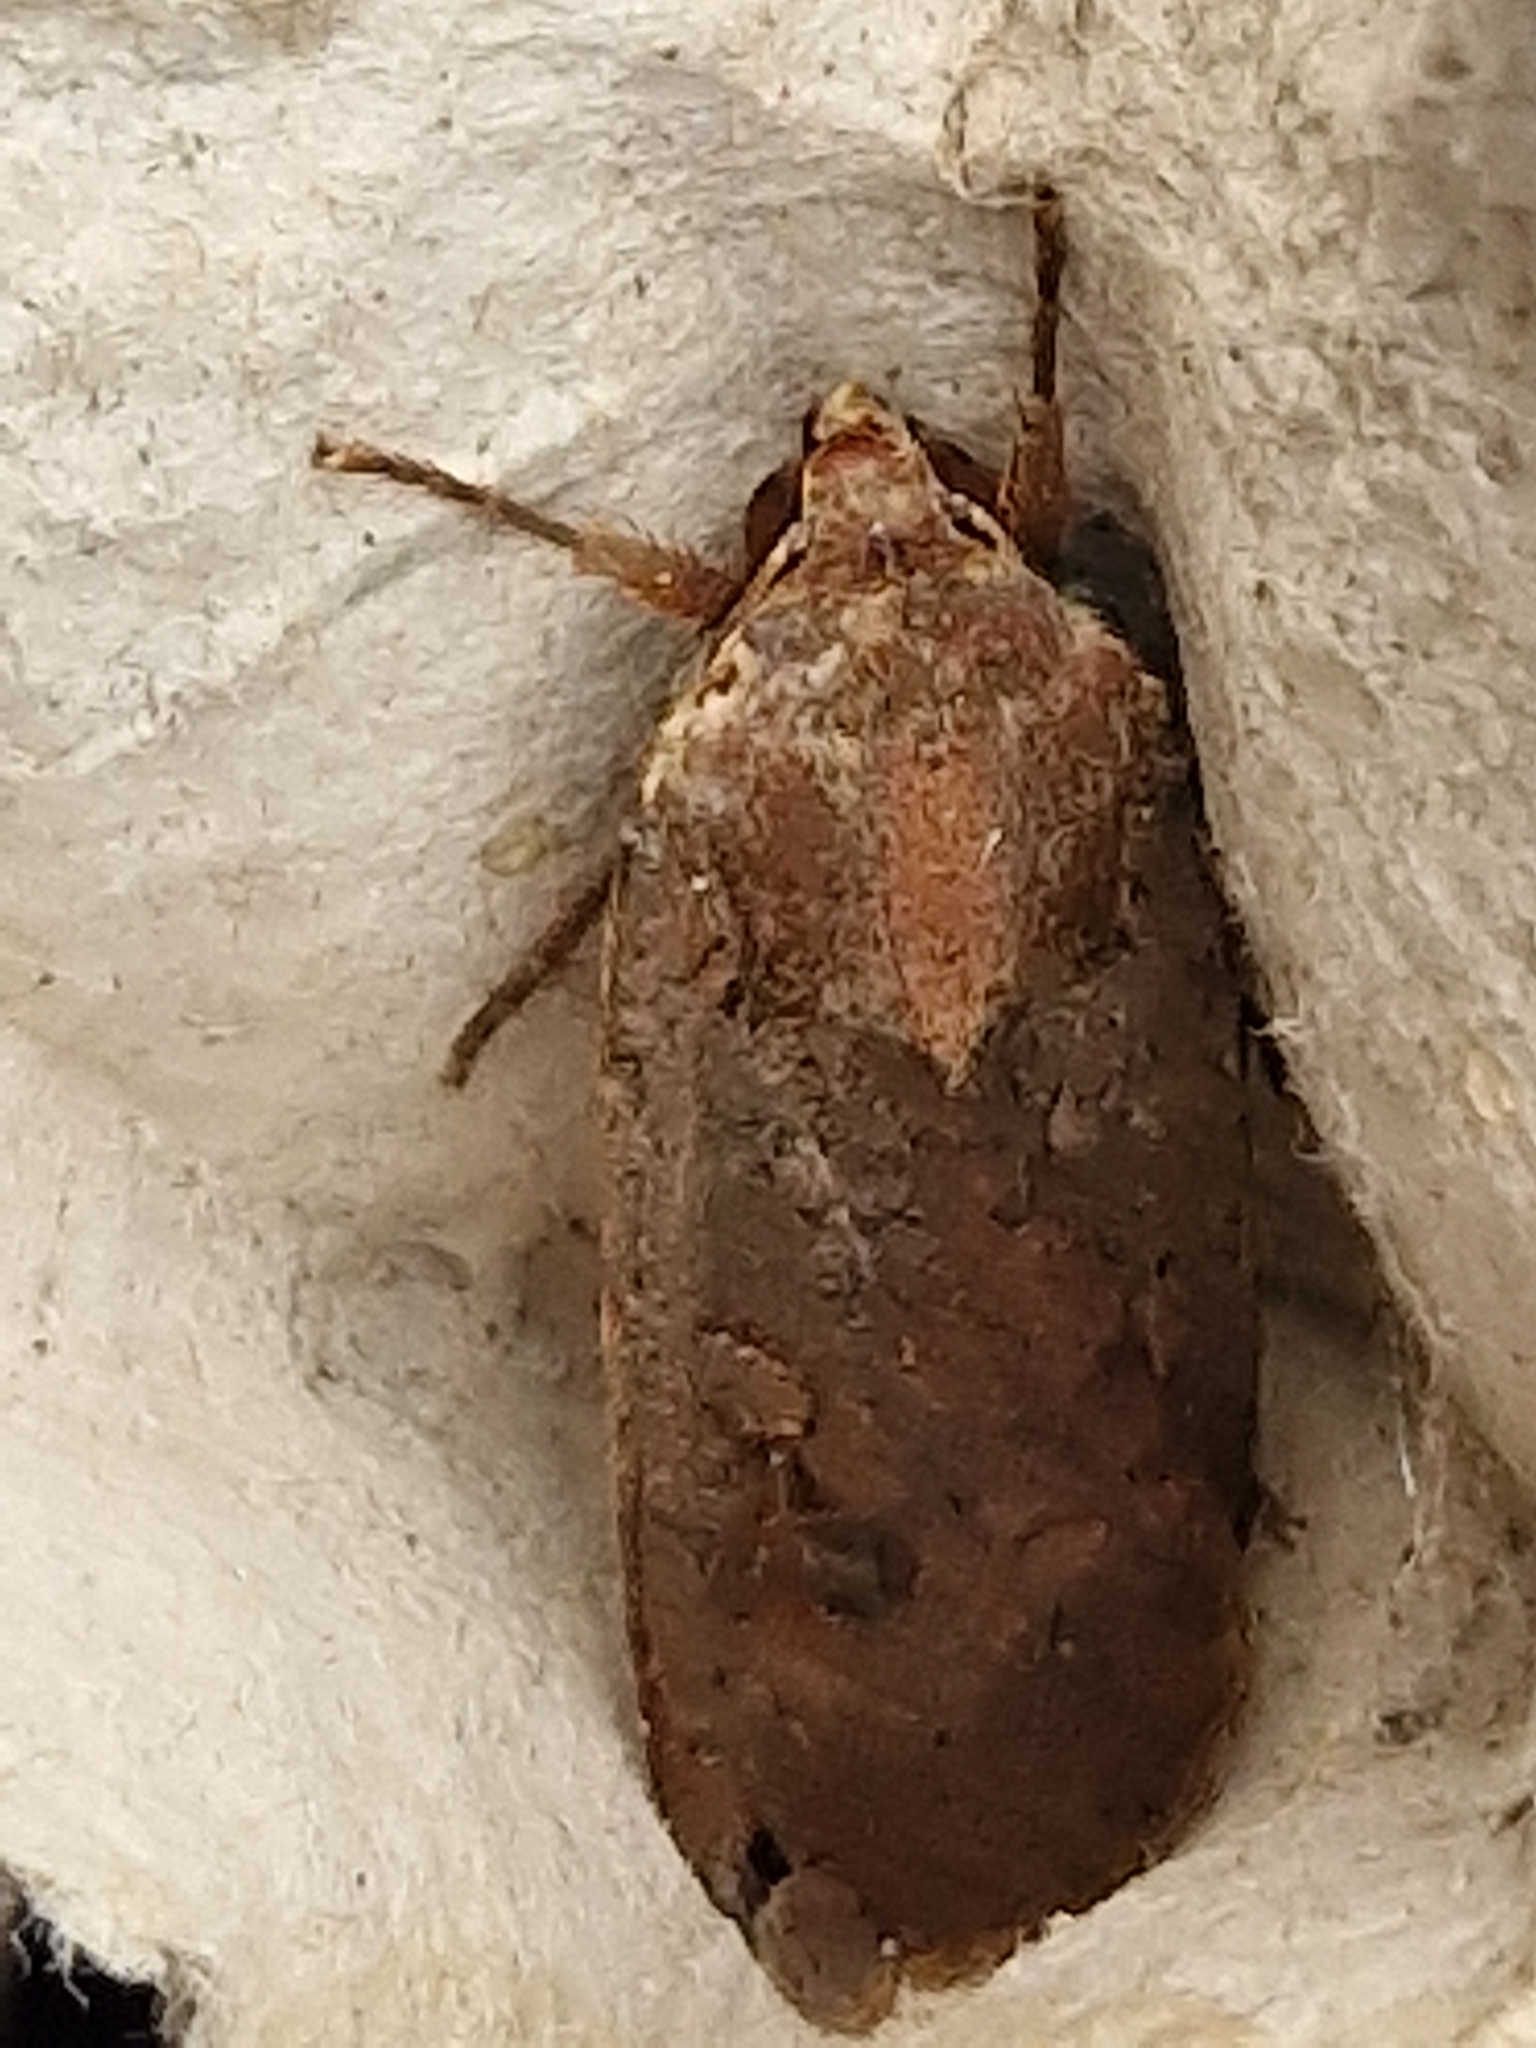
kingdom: Animalia
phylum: Arthropoda
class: Insecta
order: Lepidoptera
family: Noctuidae
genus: Noctua
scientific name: Noctua pronuba
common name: Large yellow underwing
